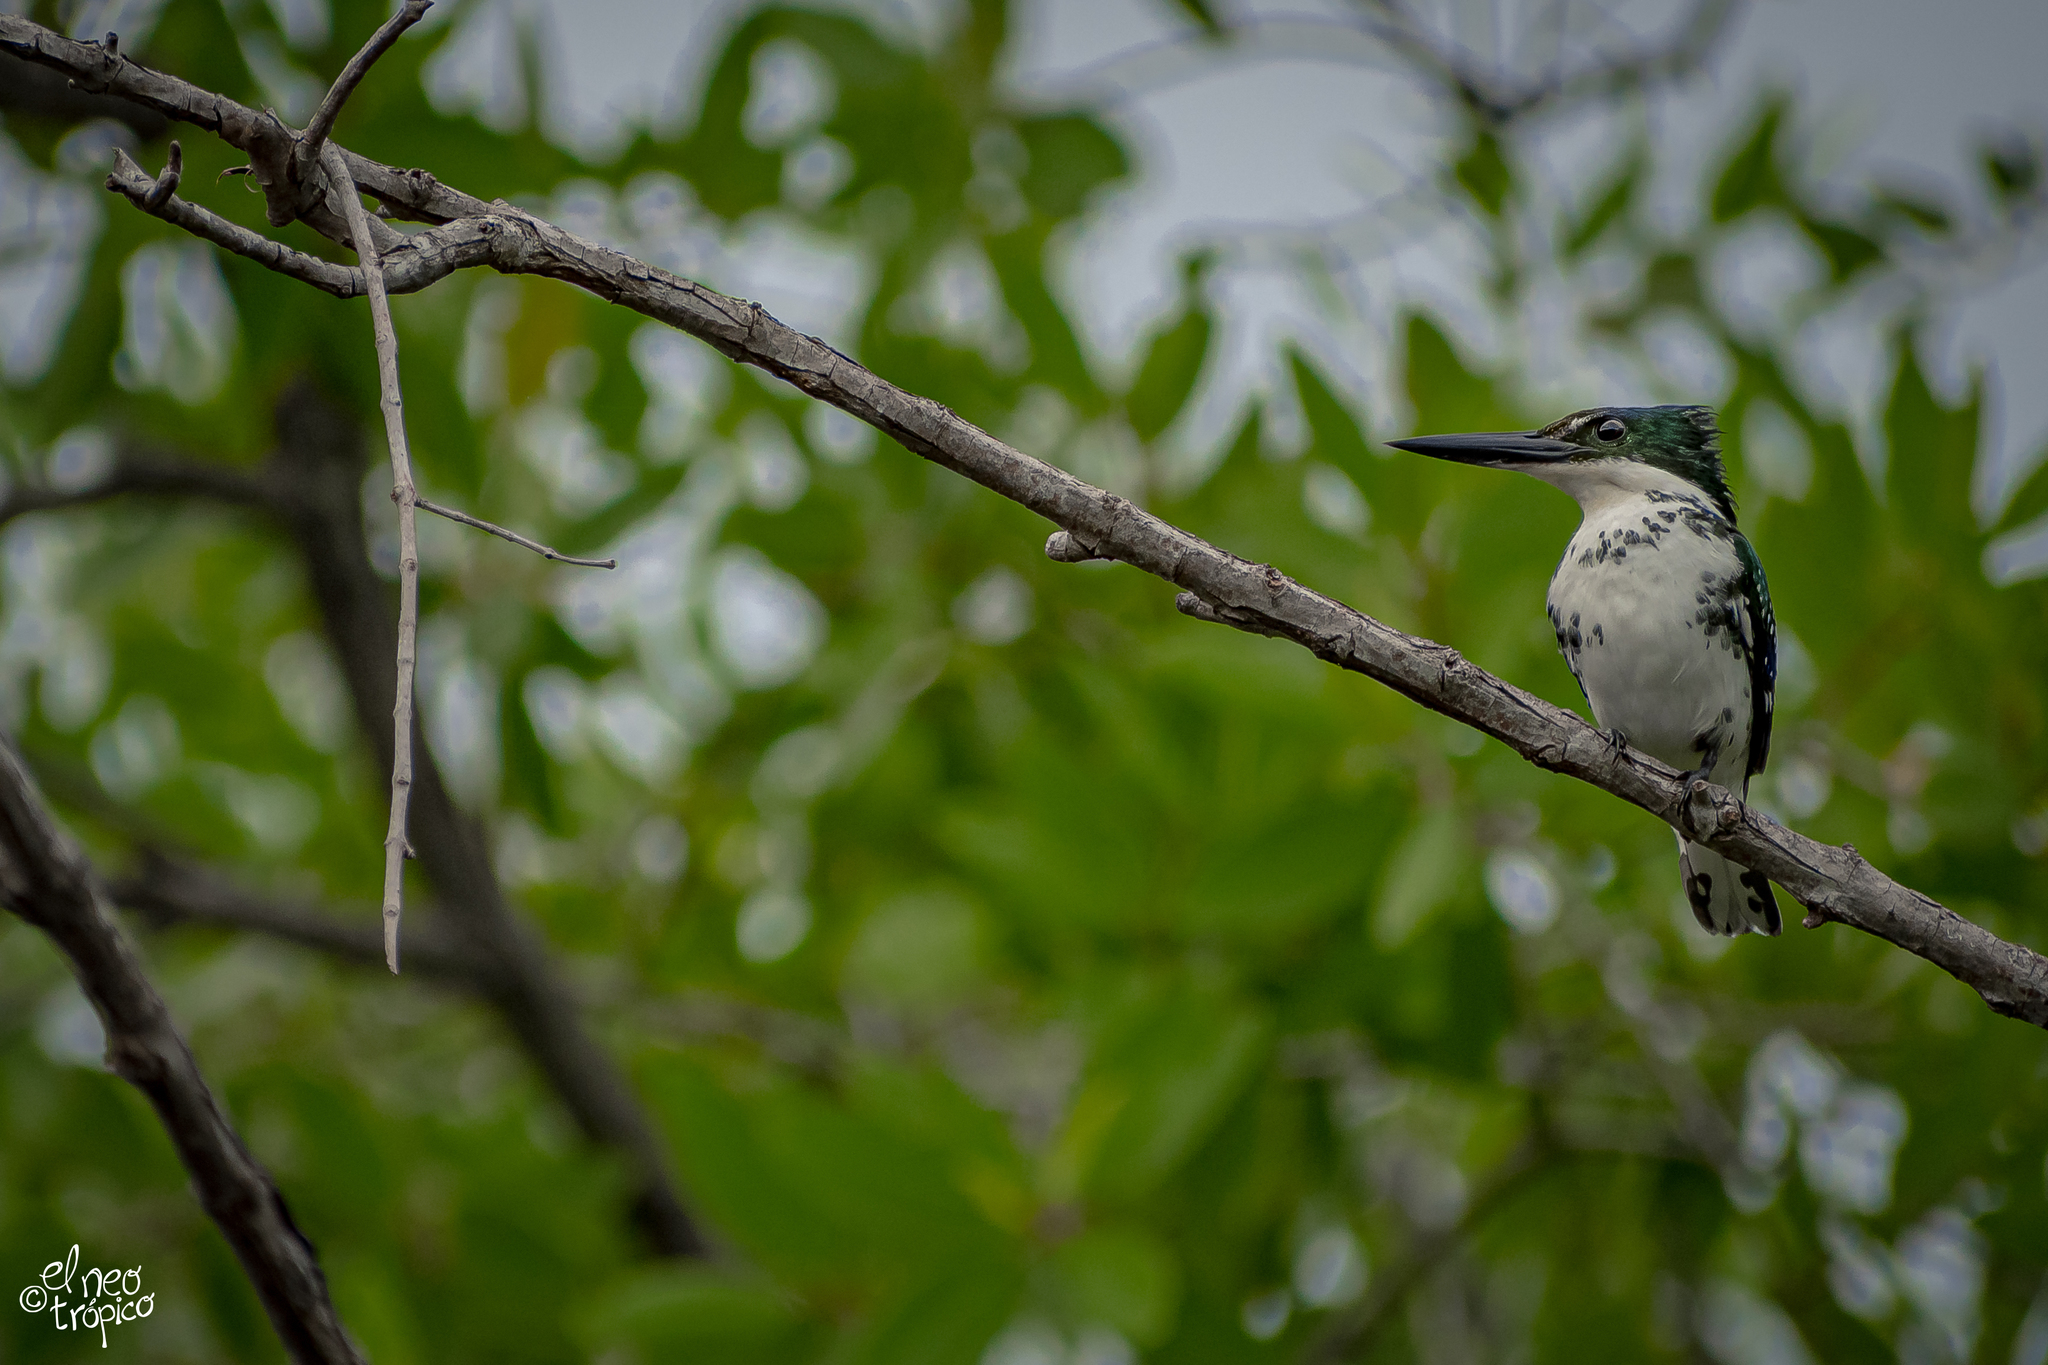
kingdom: Animalia
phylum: Chordata
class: Aves
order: Coraciiformes
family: Alcedinidae
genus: Chloroceryle
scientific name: Chloroceryle americana
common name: Green kingfisher
